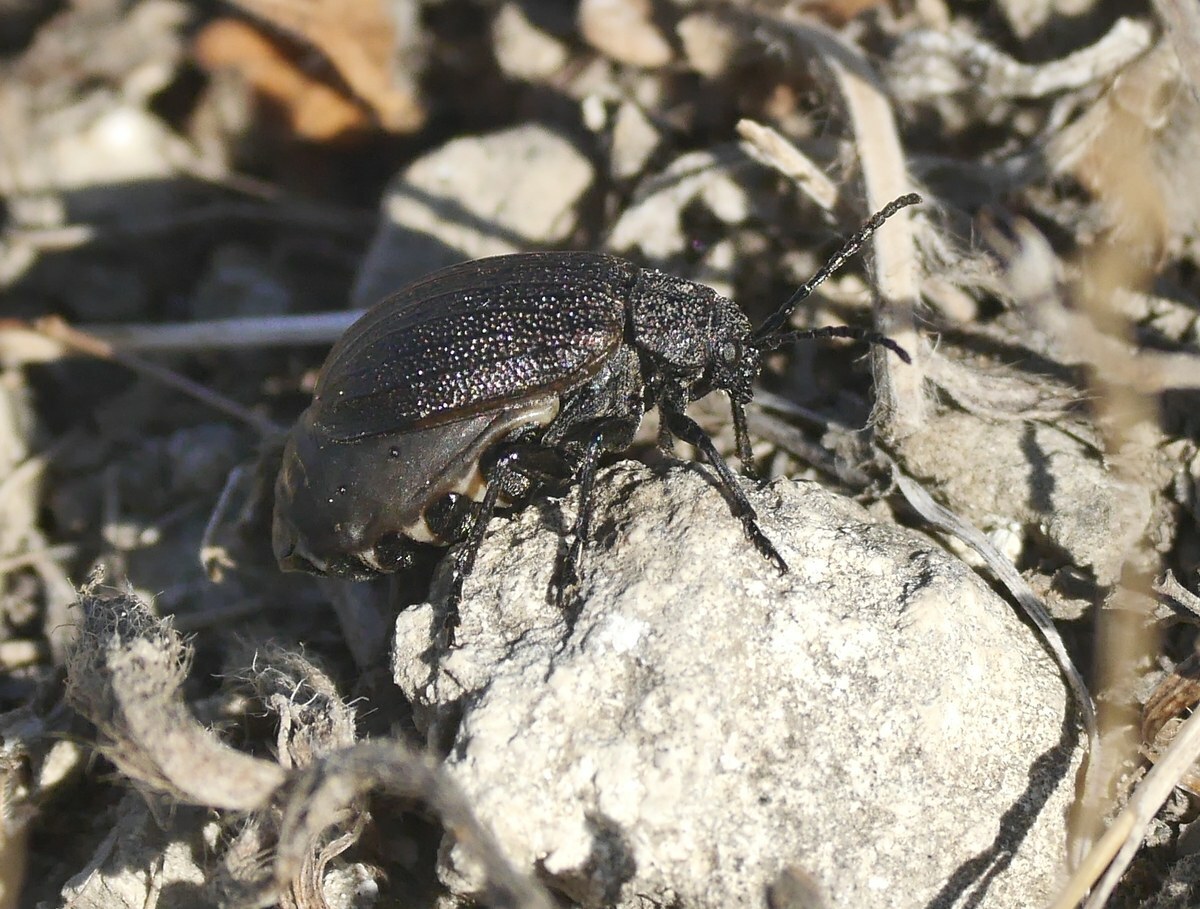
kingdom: Animalia
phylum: Arthropoda
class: Insecta
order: Coleoptera
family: Chrysomelidae
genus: Galeruca
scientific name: Galeruca pomonae
